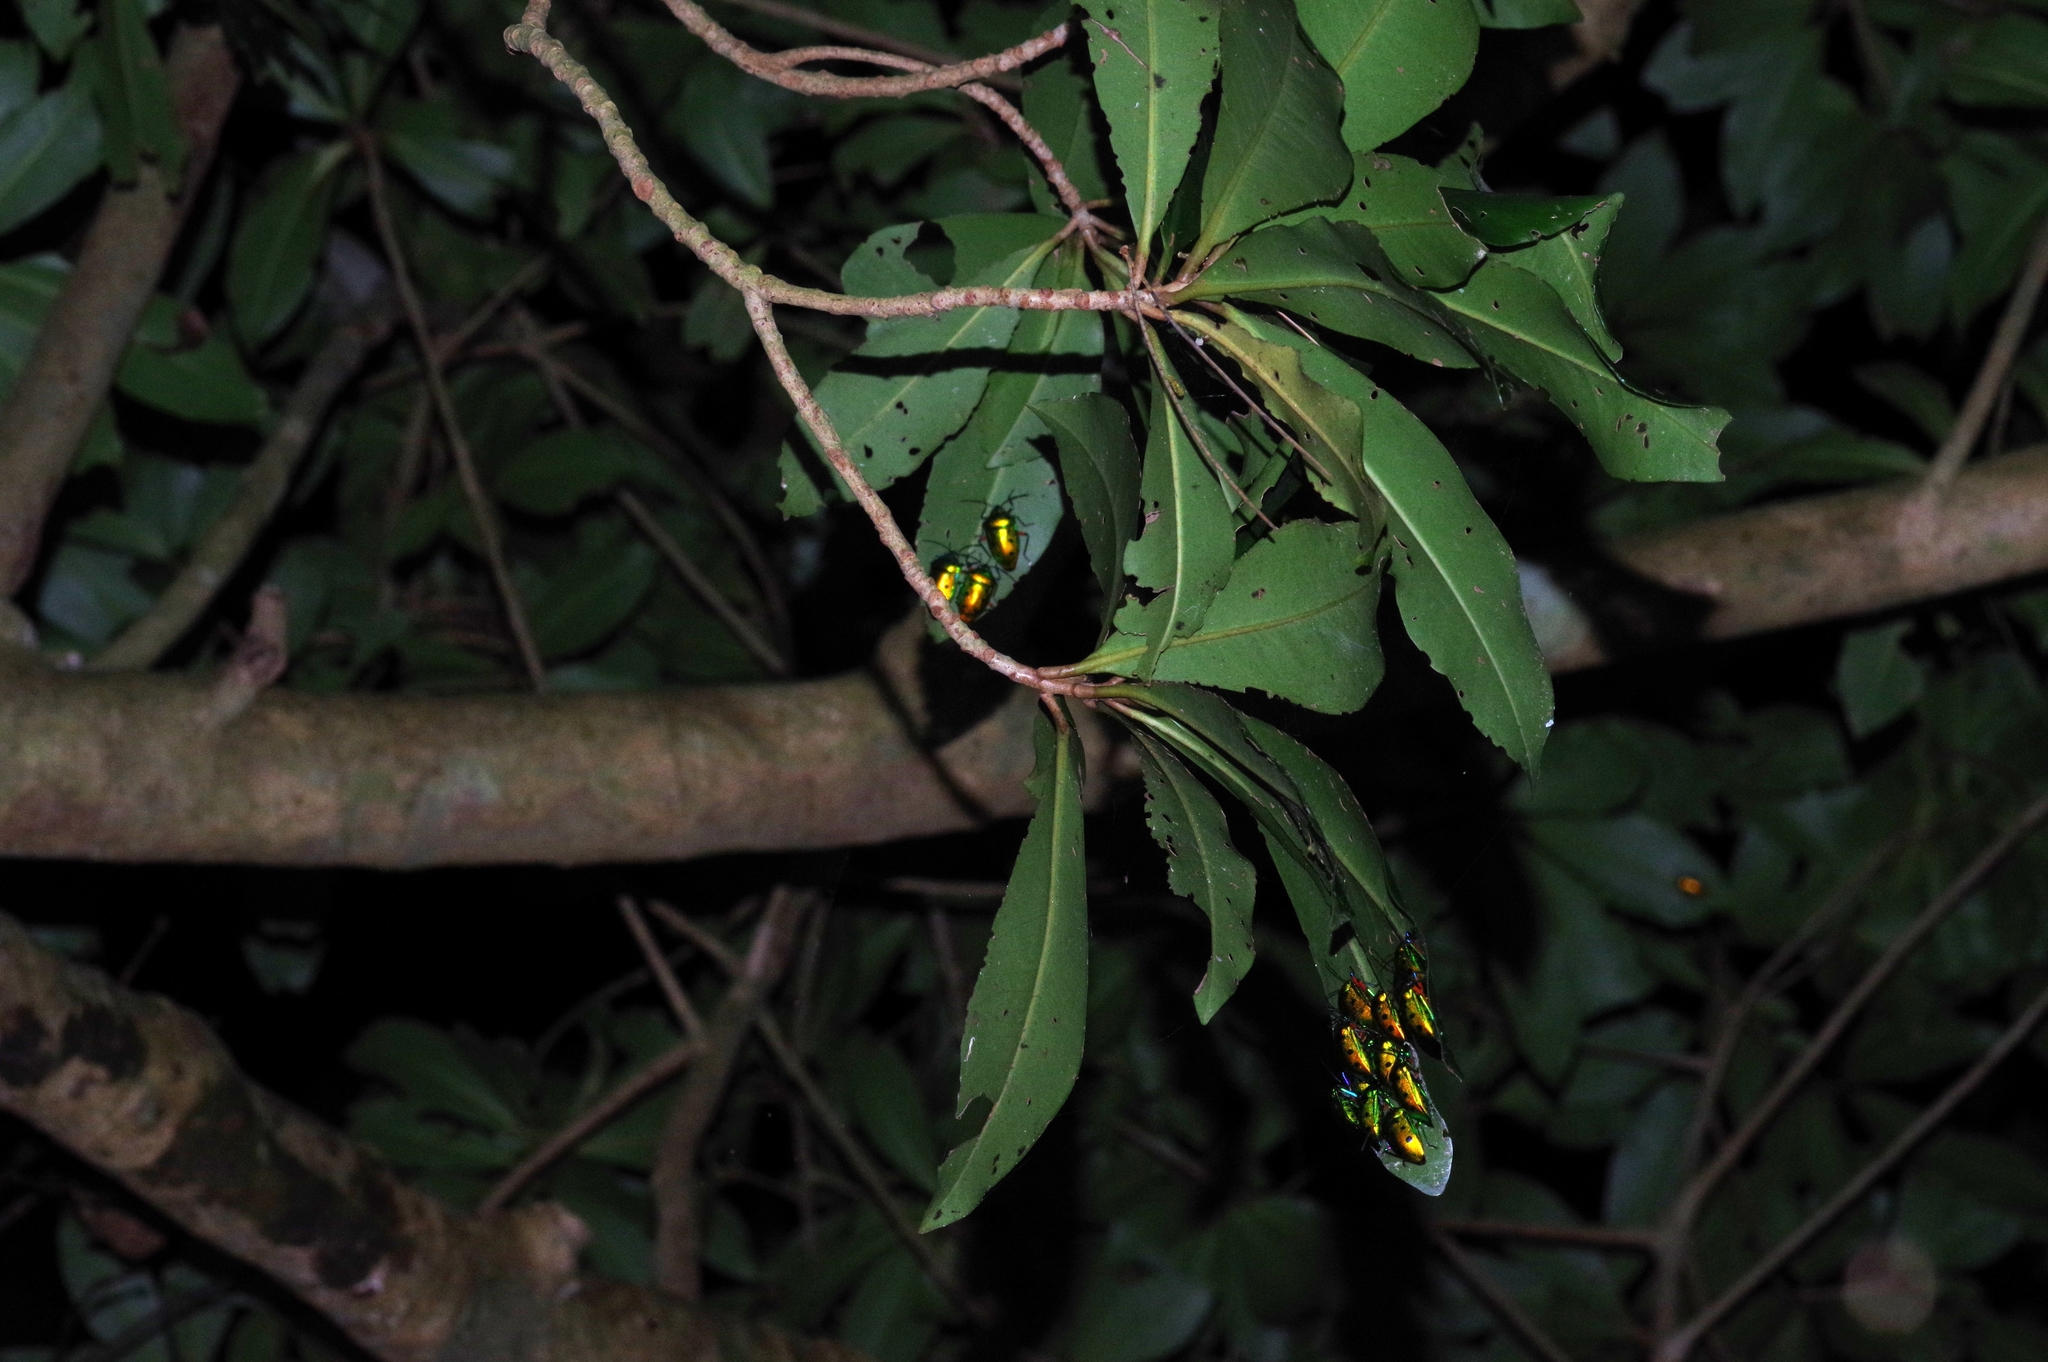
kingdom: Animalia
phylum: Arthropoda
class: Insecta
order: Hemiptera
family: Scutelleridae
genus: Calliphara
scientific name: Calliphara excellens
